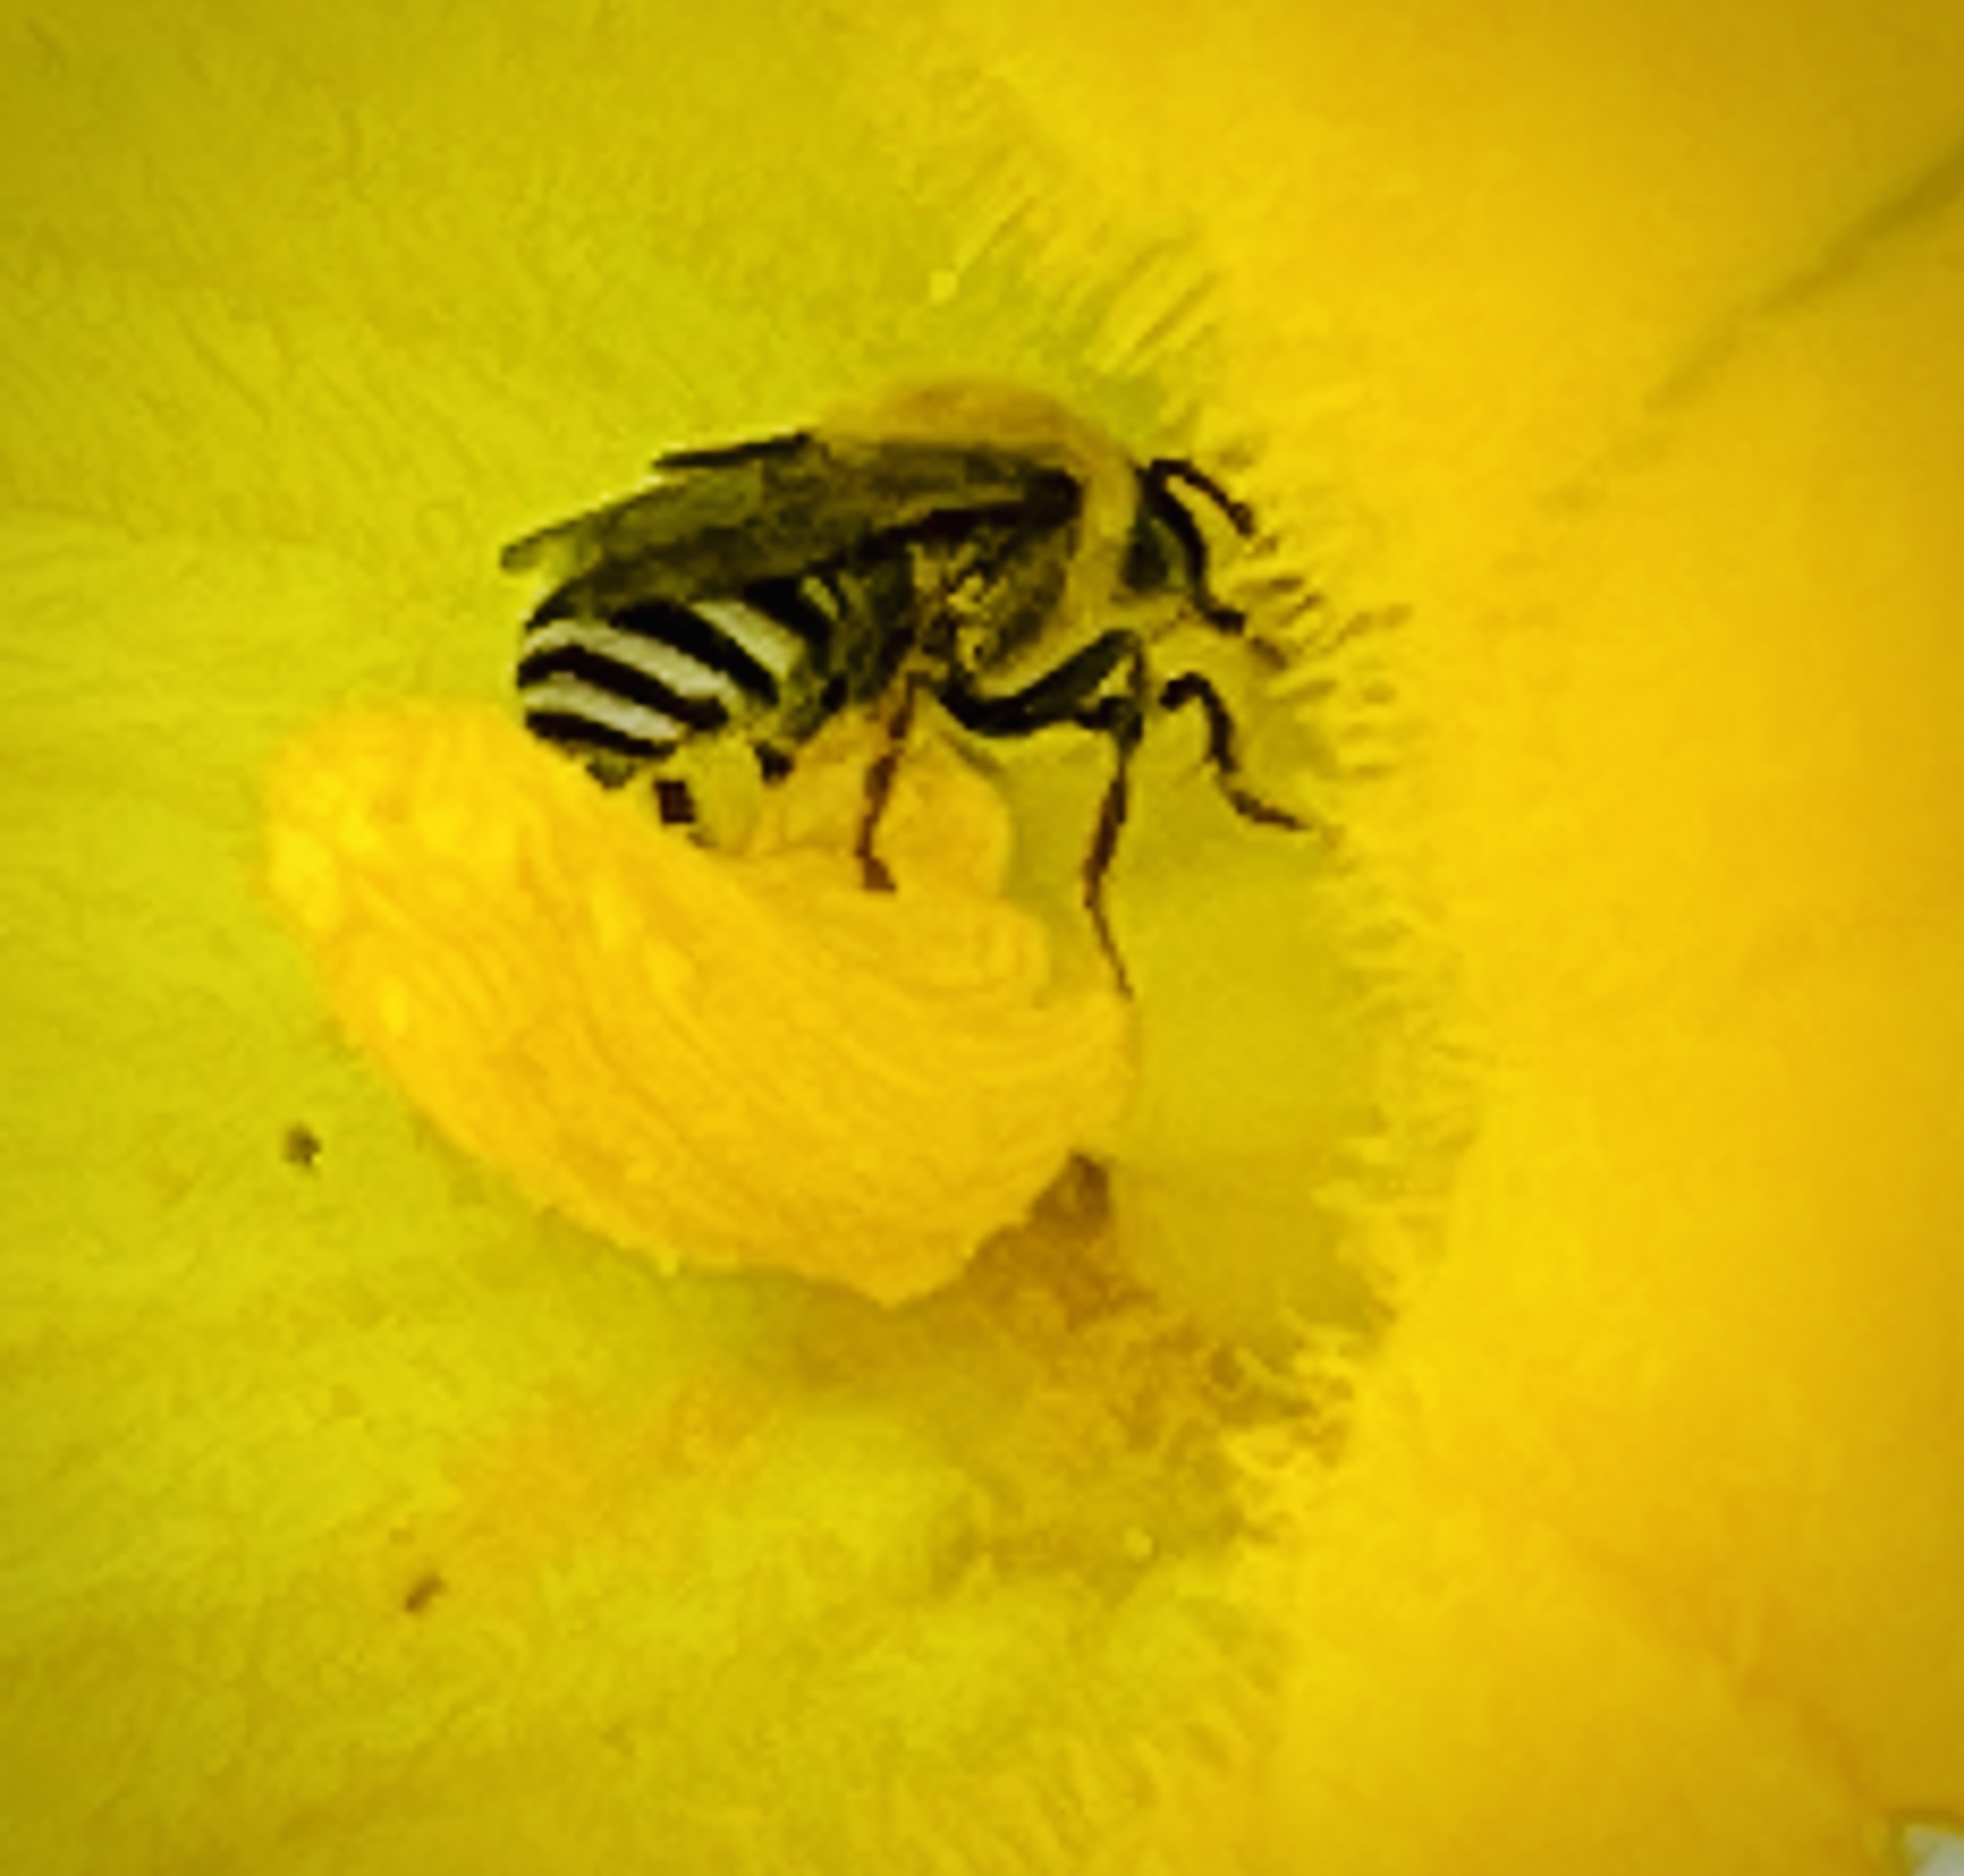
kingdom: Animalia
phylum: Arthropoda
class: Insecta
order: Hymenoptera
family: Apidae
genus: Peponapis
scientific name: Peponapis pruinosa
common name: Pruinose squash bee
